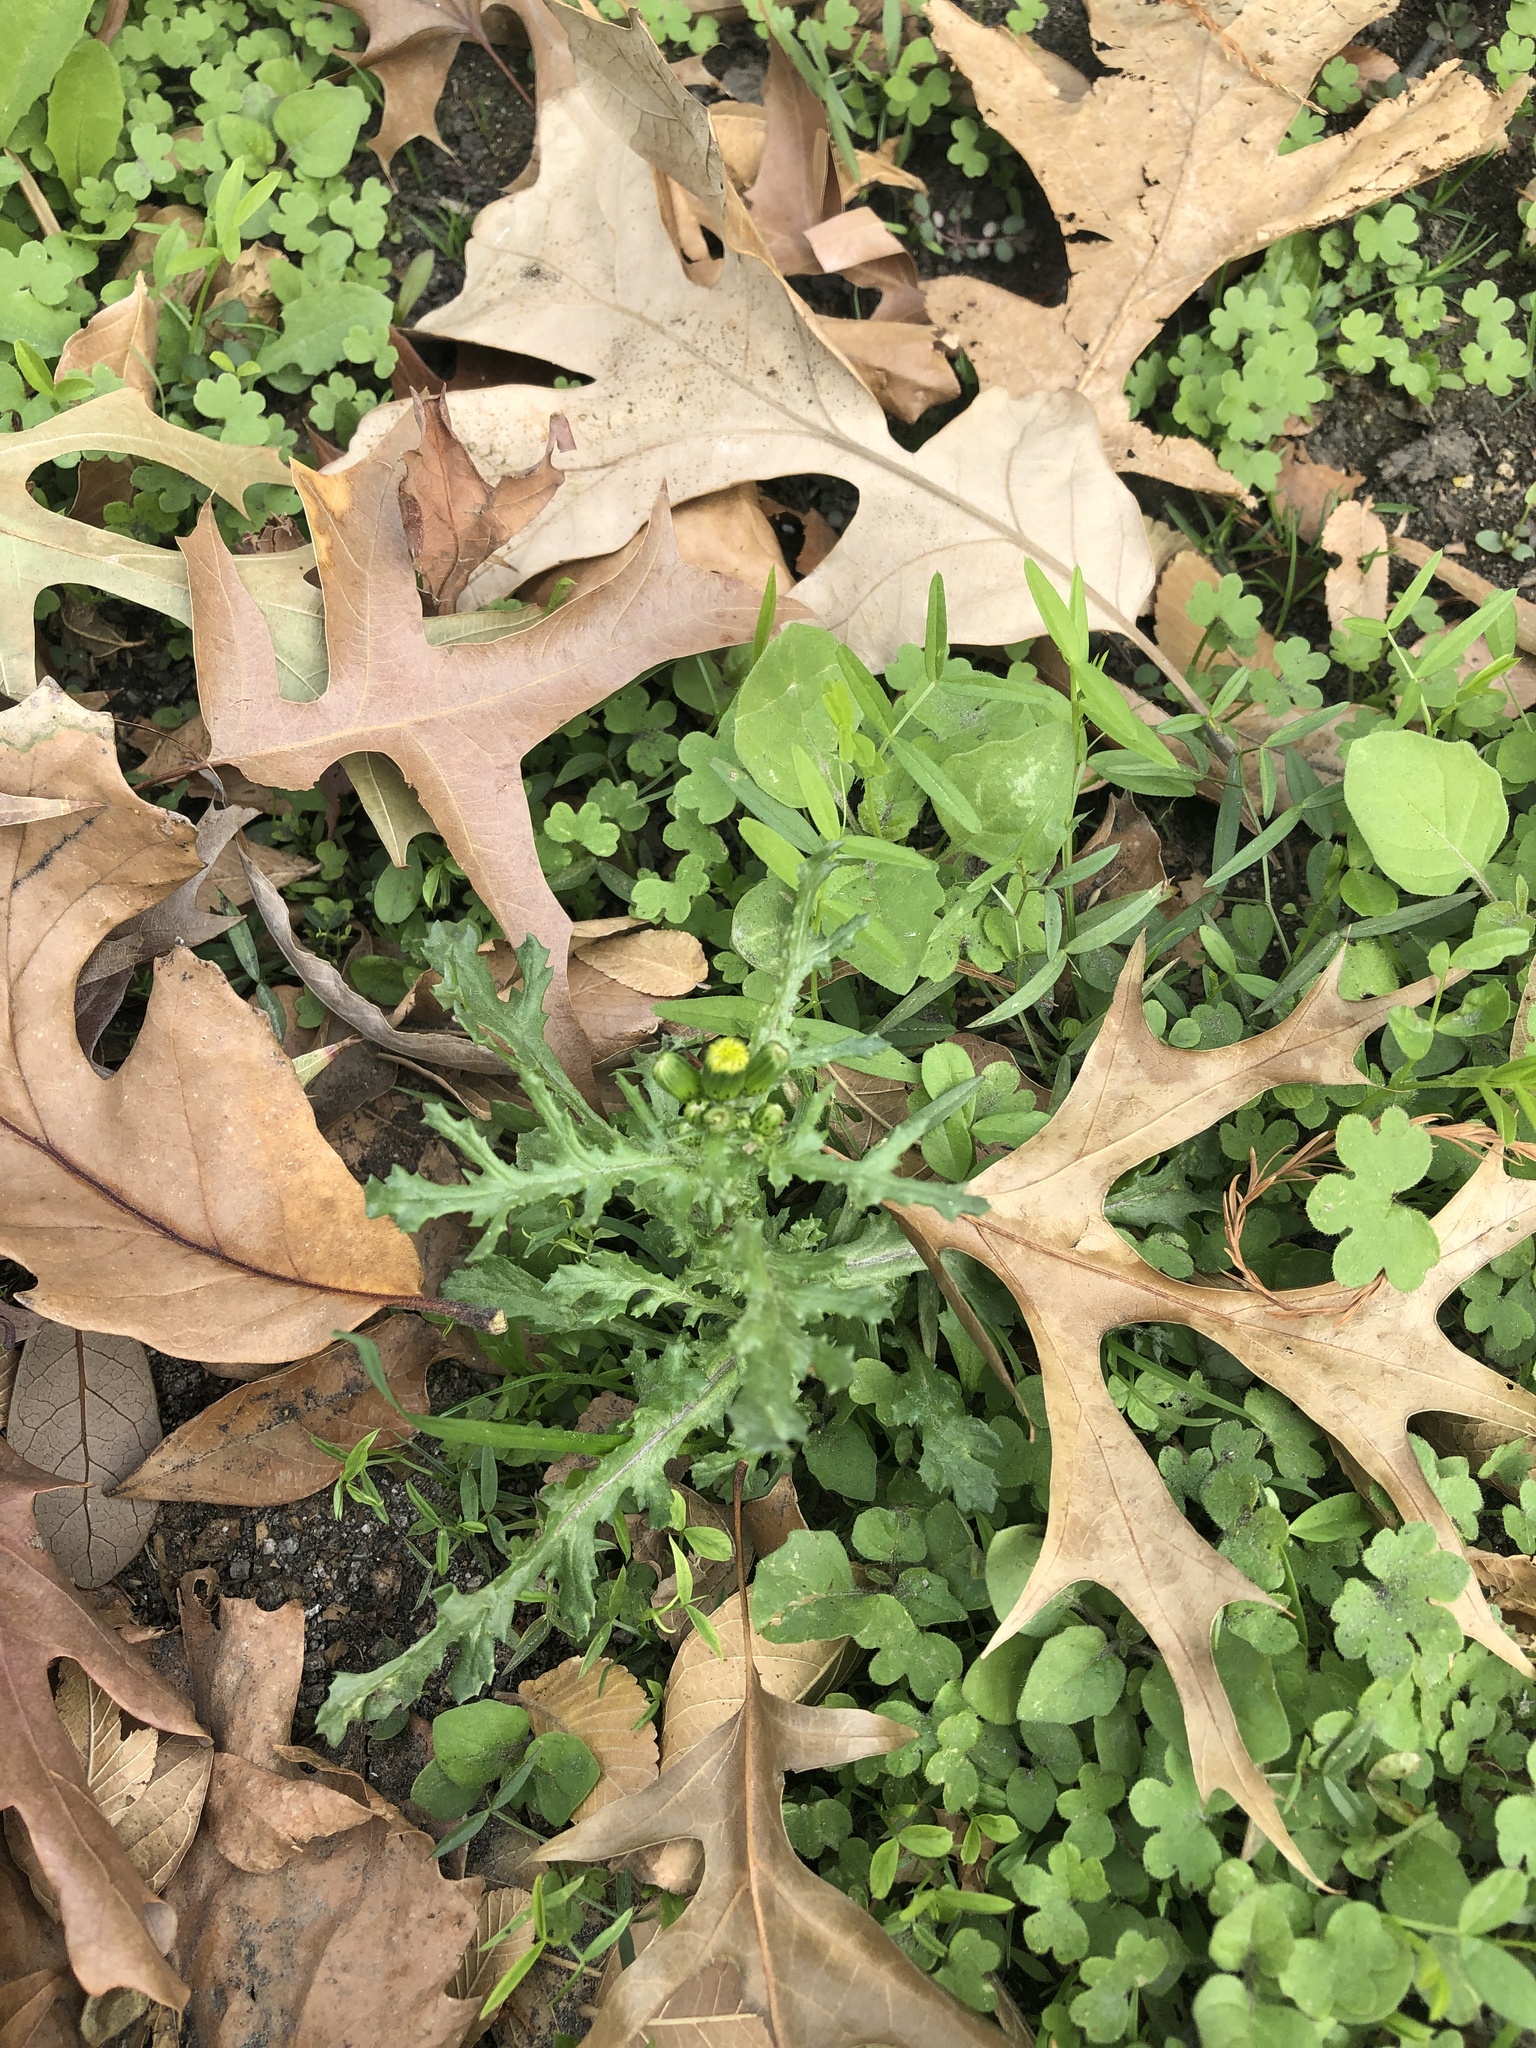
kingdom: Plantae
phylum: Tracheophyta
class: Magnoliopsida
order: Asterales
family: Asteraceae
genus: Senecio
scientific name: Senecio vulgaris
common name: Old-man-in-the-spring
